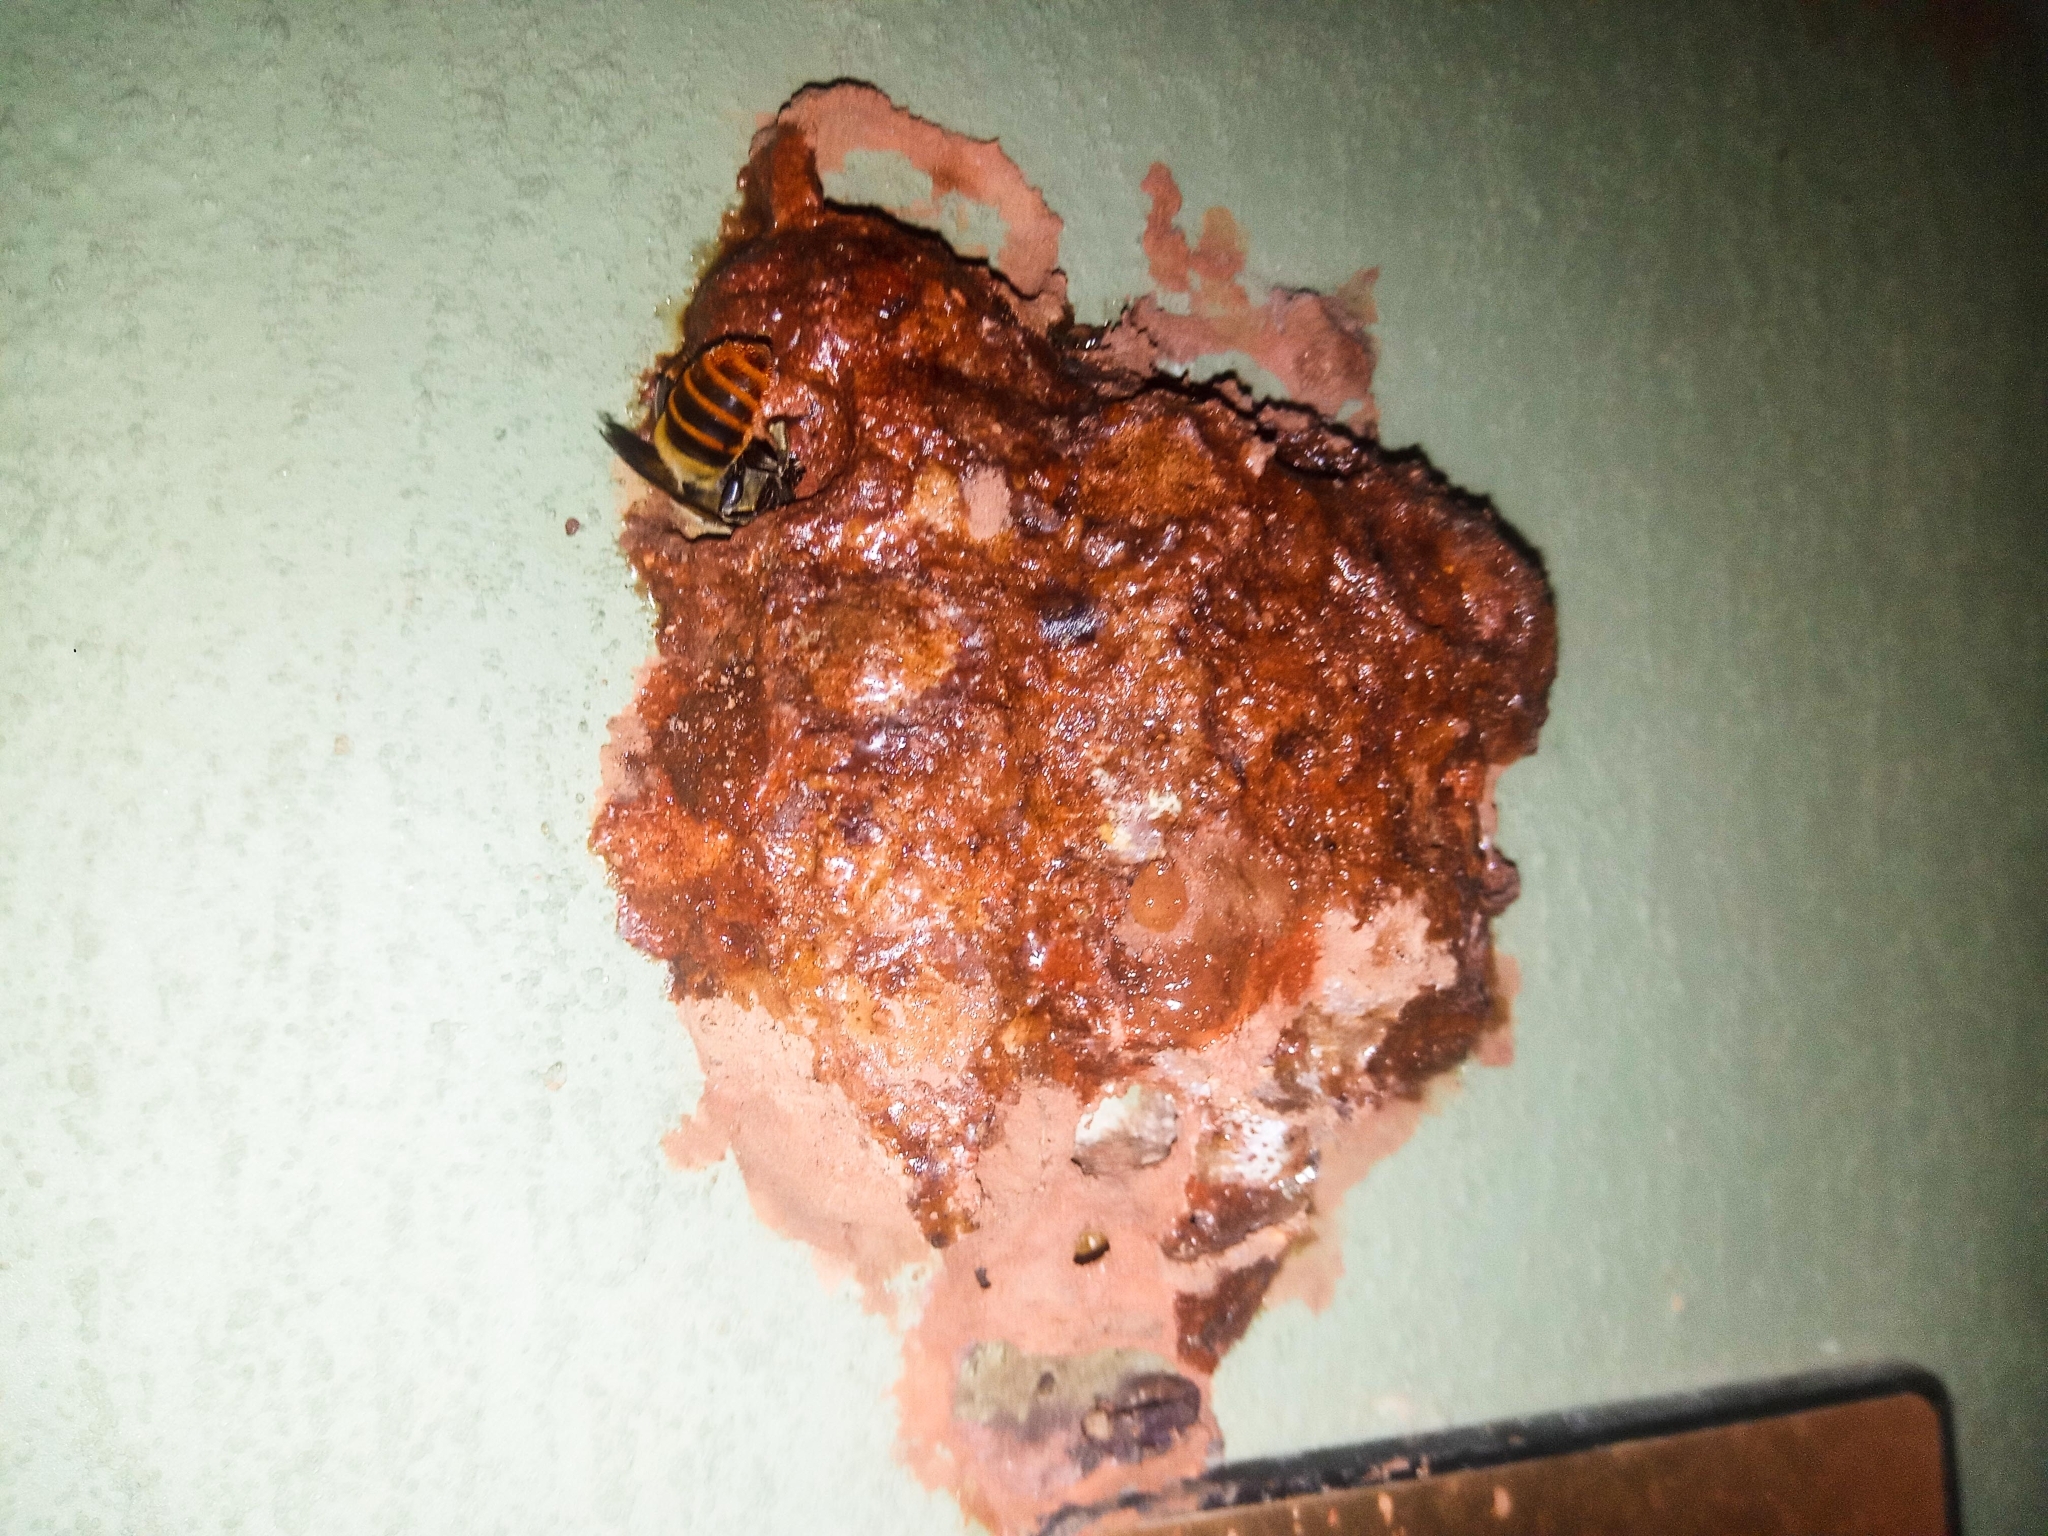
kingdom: Animalia
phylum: Arthropoda
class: Insecta
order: Hymenoptera
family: Megachilidae
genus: Megachile
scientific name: Megachile
